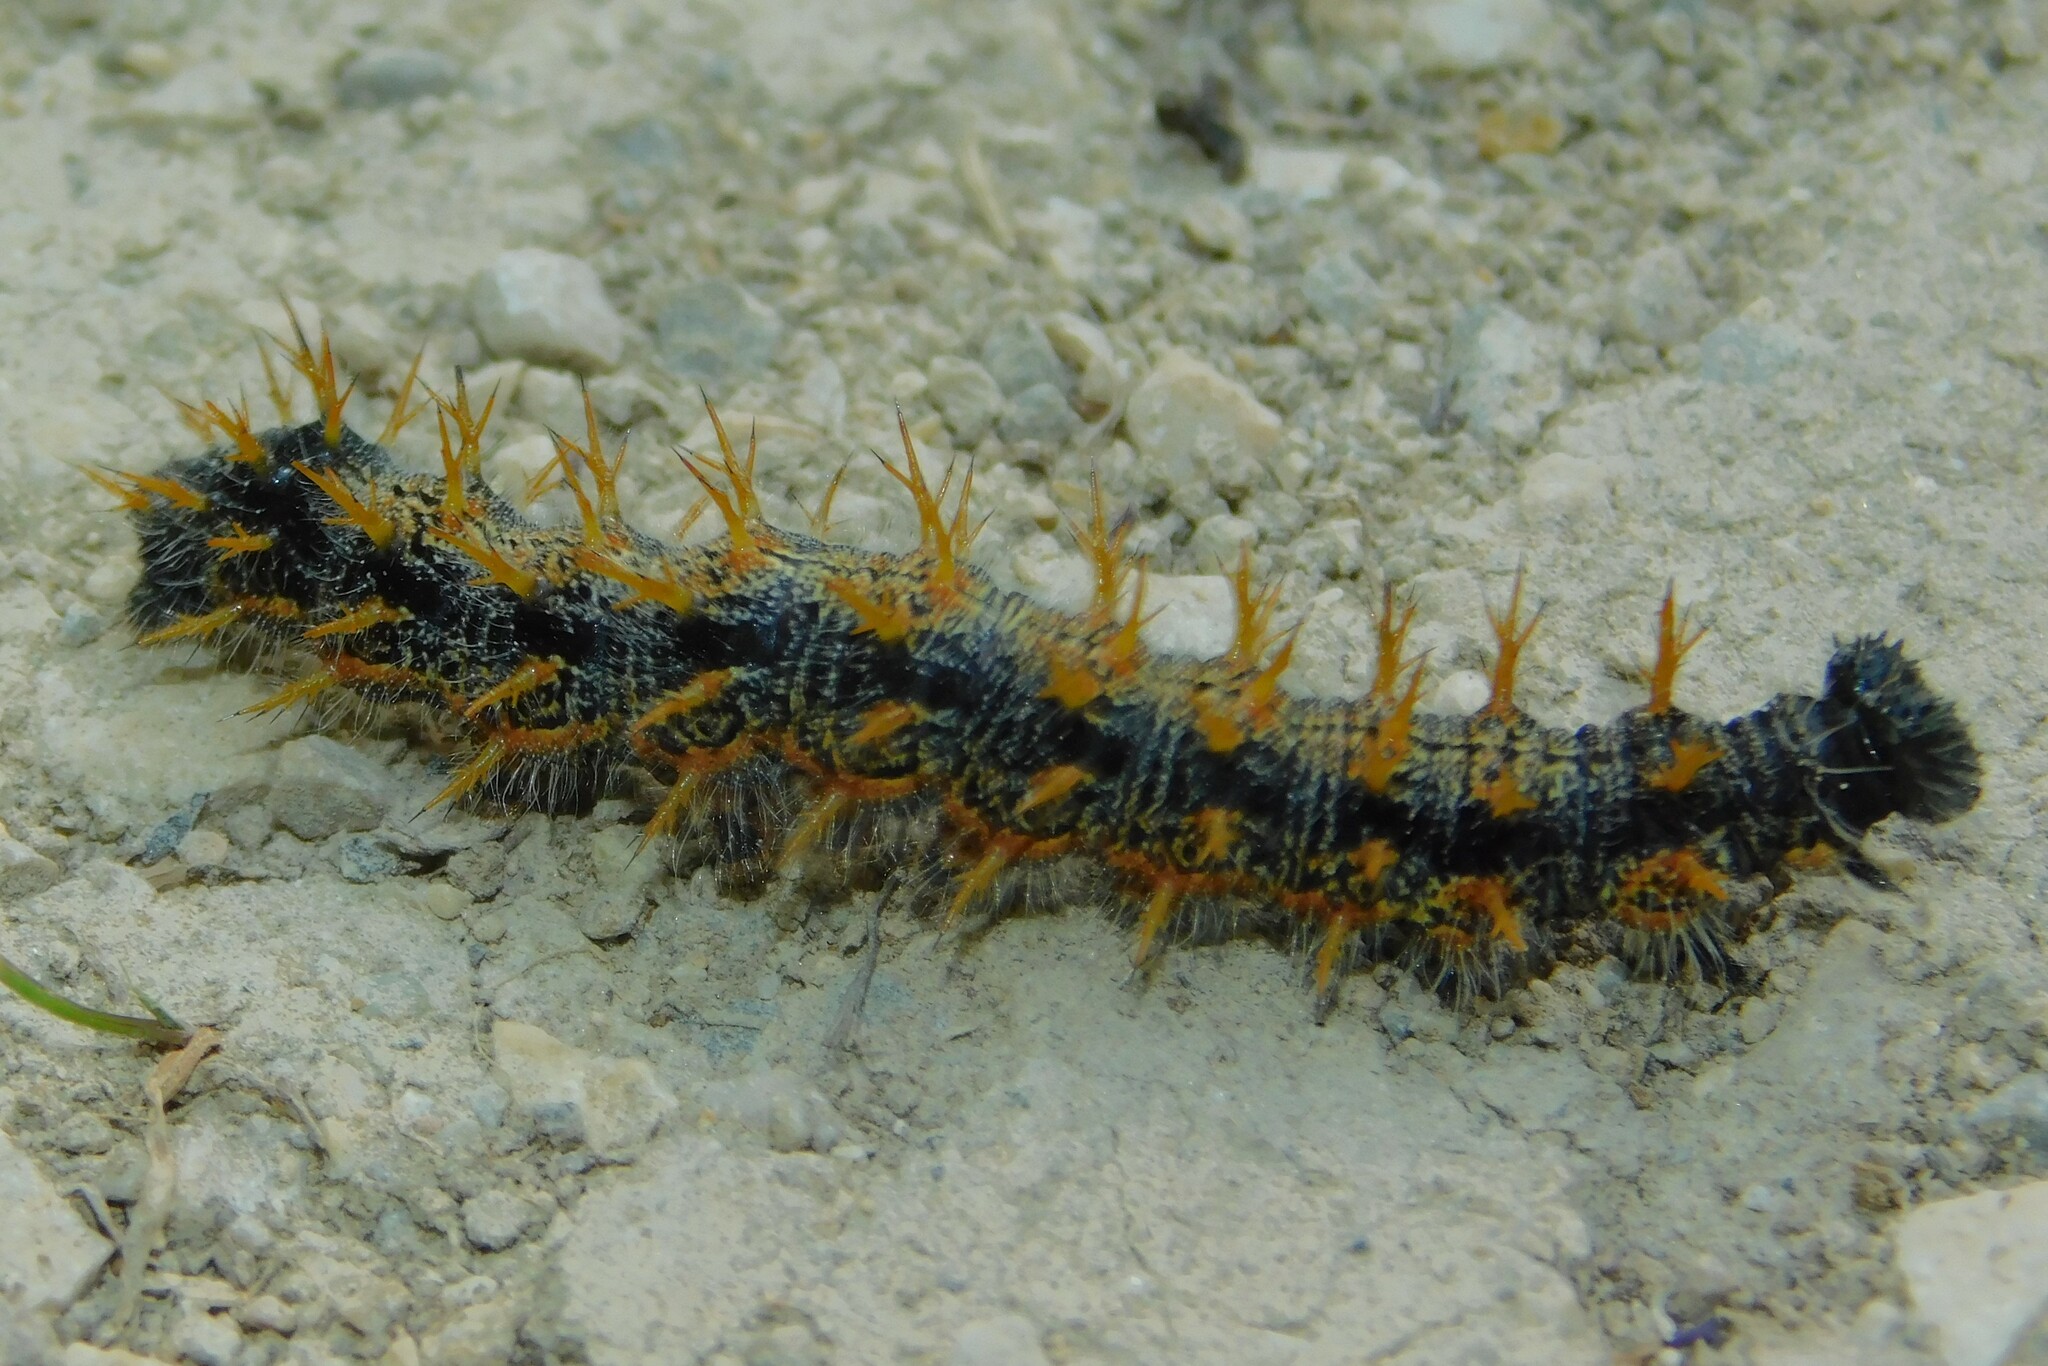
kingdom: Animalia
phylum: Arthropoda
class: Insecta
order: Lepidoptera
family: Nymphalidae
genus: Nymphalis
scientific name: Nymphalis polychloros
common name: Large tortoiseshell
